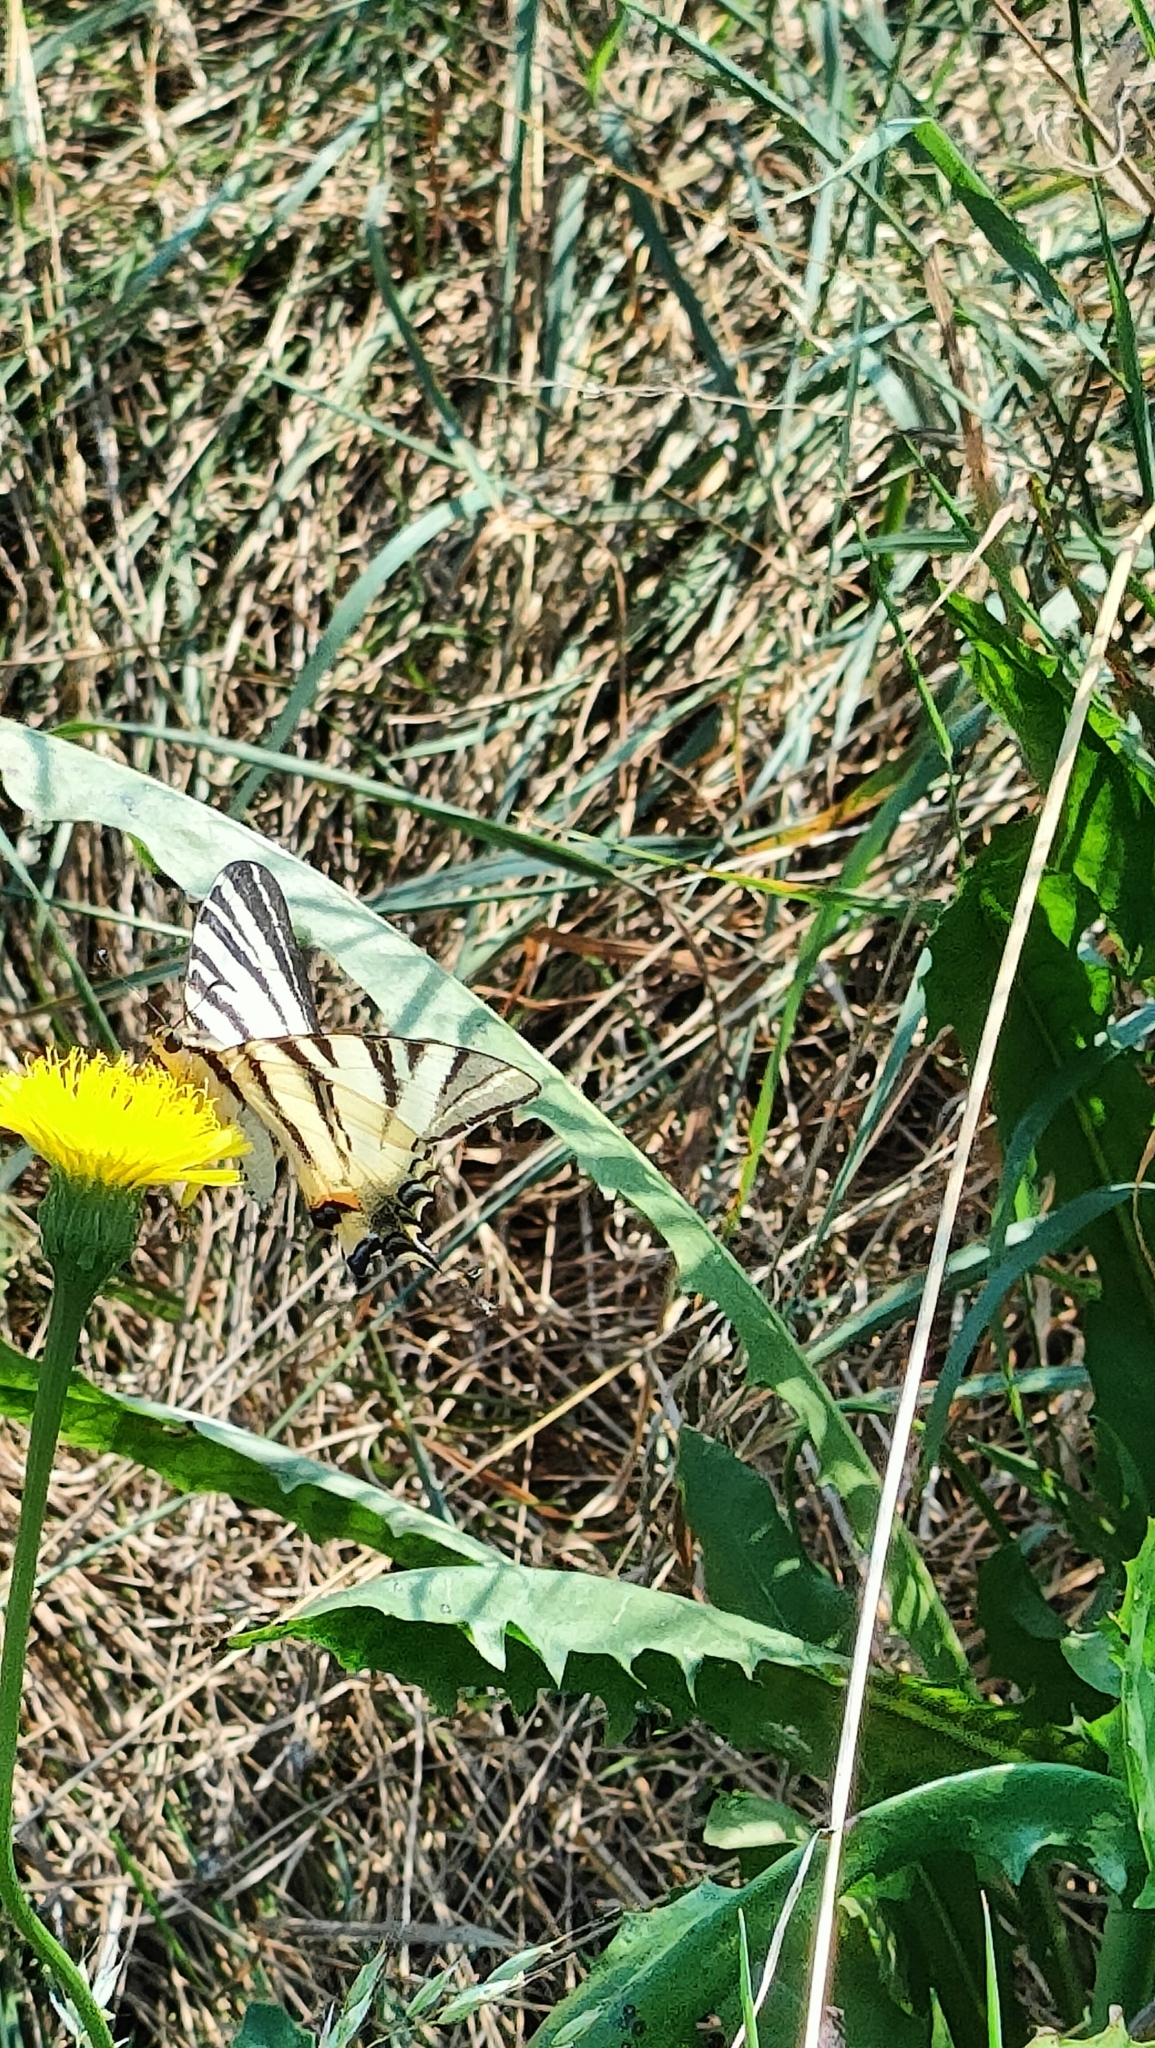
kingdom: Animalia
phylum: Arthropoda
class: Insecta
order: Lepidoptera
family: Papilionidae
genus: Iphiclides
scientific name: Iphiclides podalirius
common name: Scarce swallowtail
